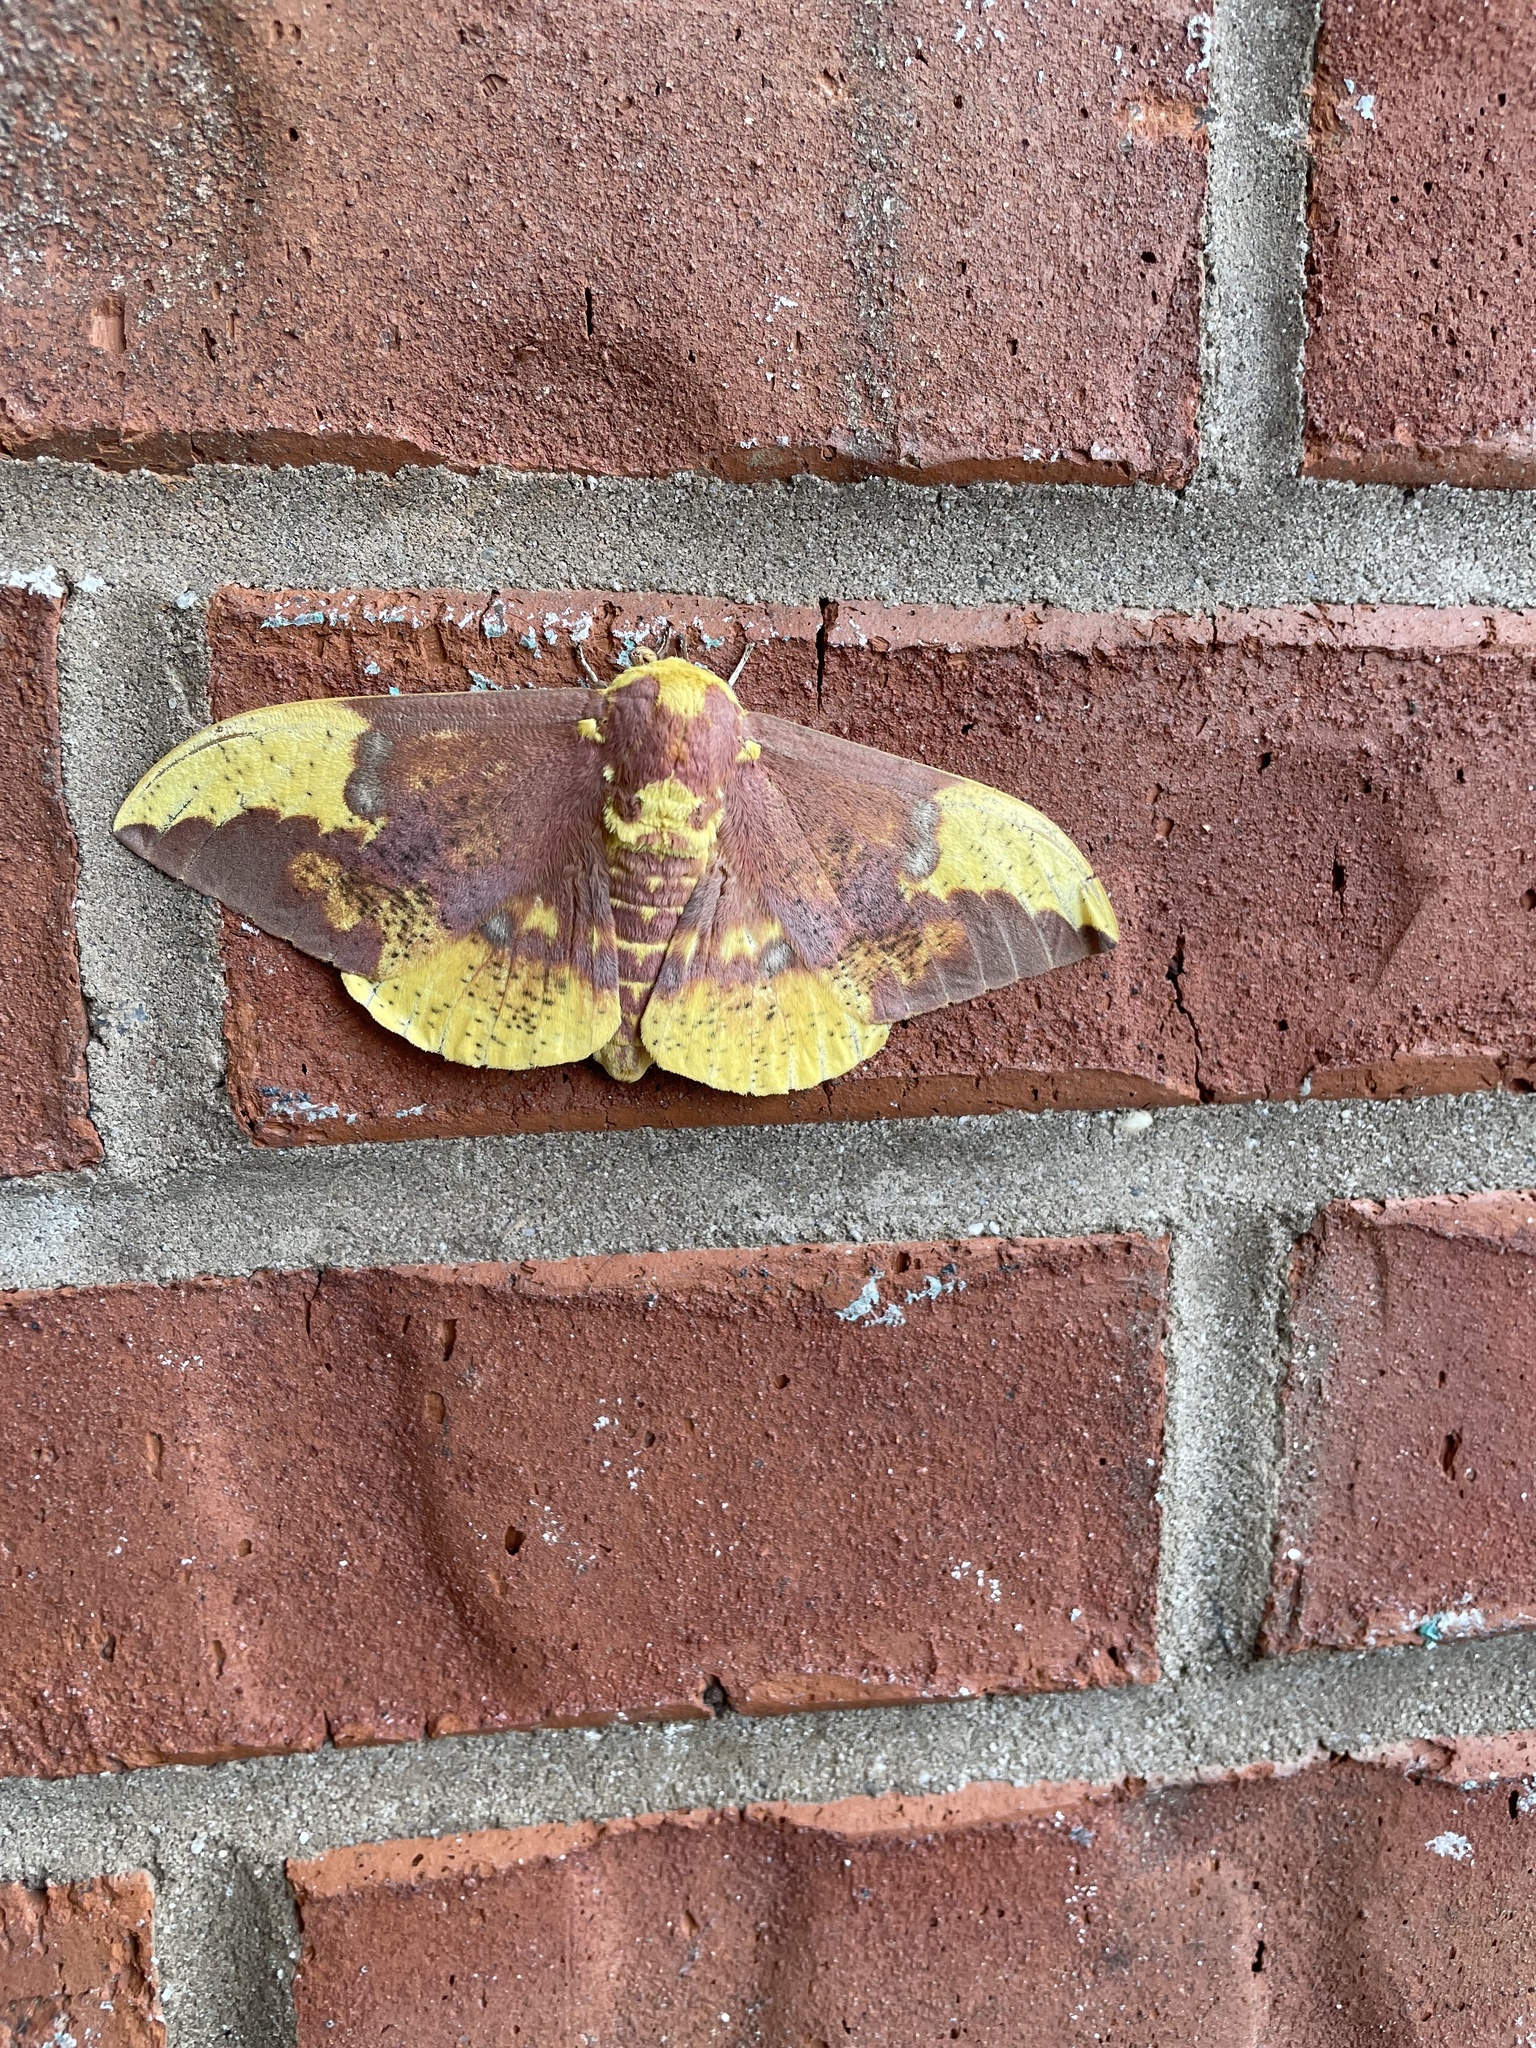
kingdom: Animalia
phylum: Arthropoda
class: Insecta
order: Lepidoptera
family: Saturniidae
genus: Eacles
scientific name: Eacles imperialis
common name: Imperial moth
